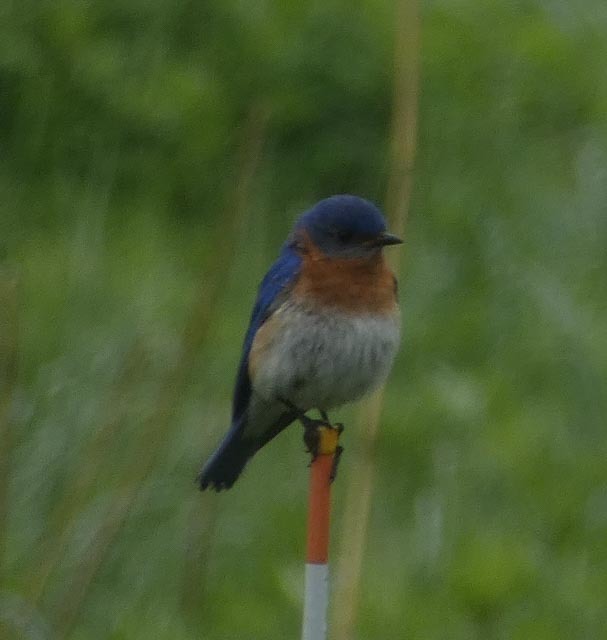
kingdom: Animalia
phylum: Chordata
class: Aves
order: Passeriformes
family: Turdidae
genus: Sialia
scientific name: Sialia sialis
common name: Eastern bluebird
